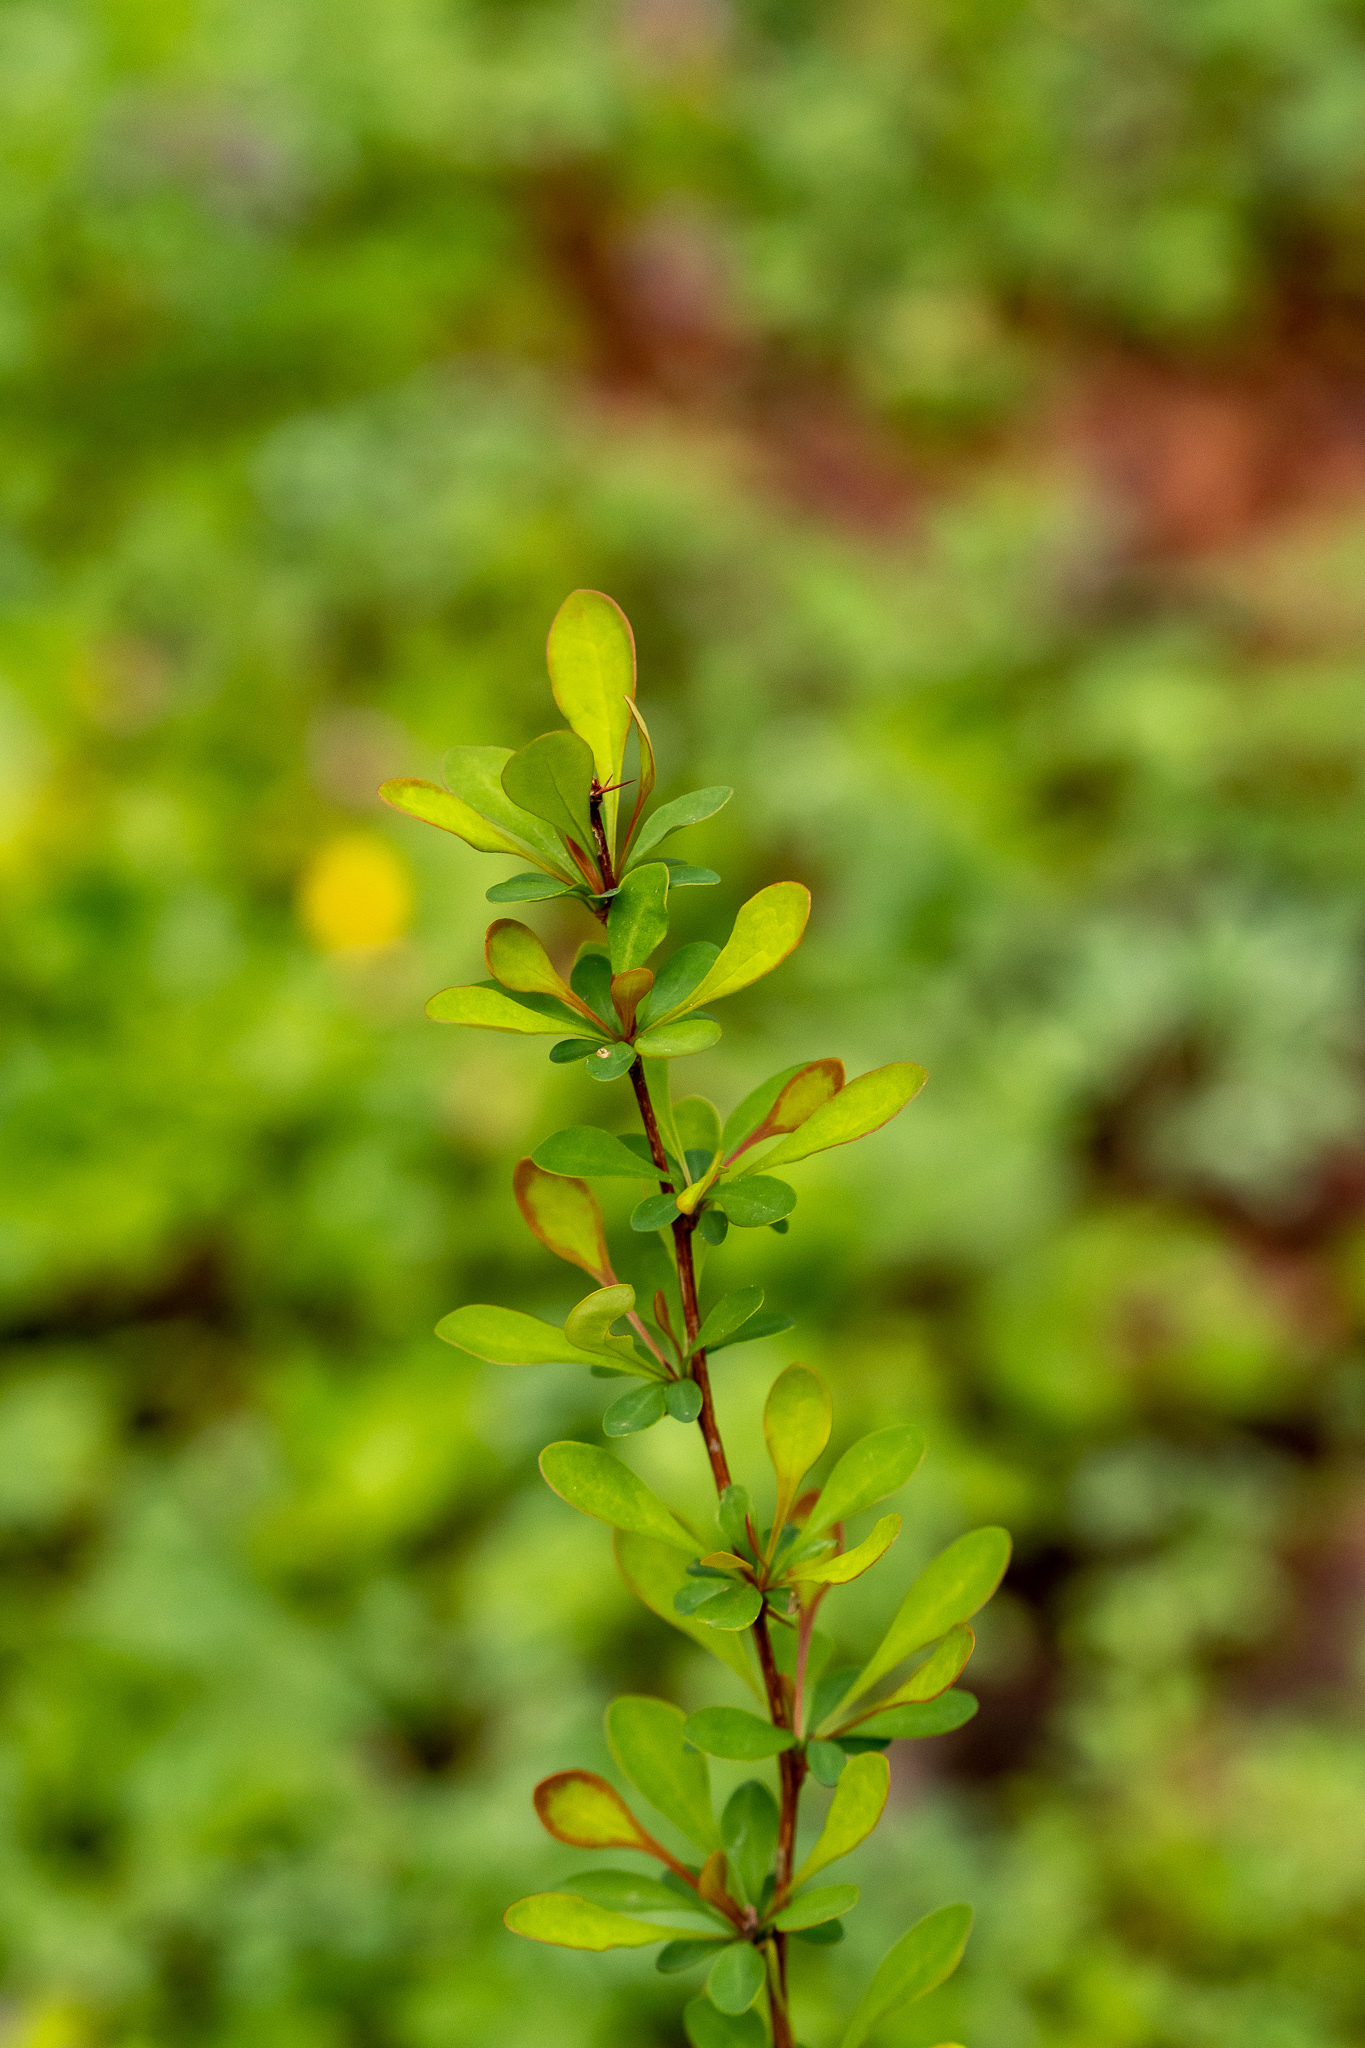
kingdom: Plantae
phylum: Tracheophyta
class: Magnoliopsida
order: Ranunculales
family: Berberidaceae
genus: Berberis
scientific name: Berberis thunbergii
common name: Japanese barberry
